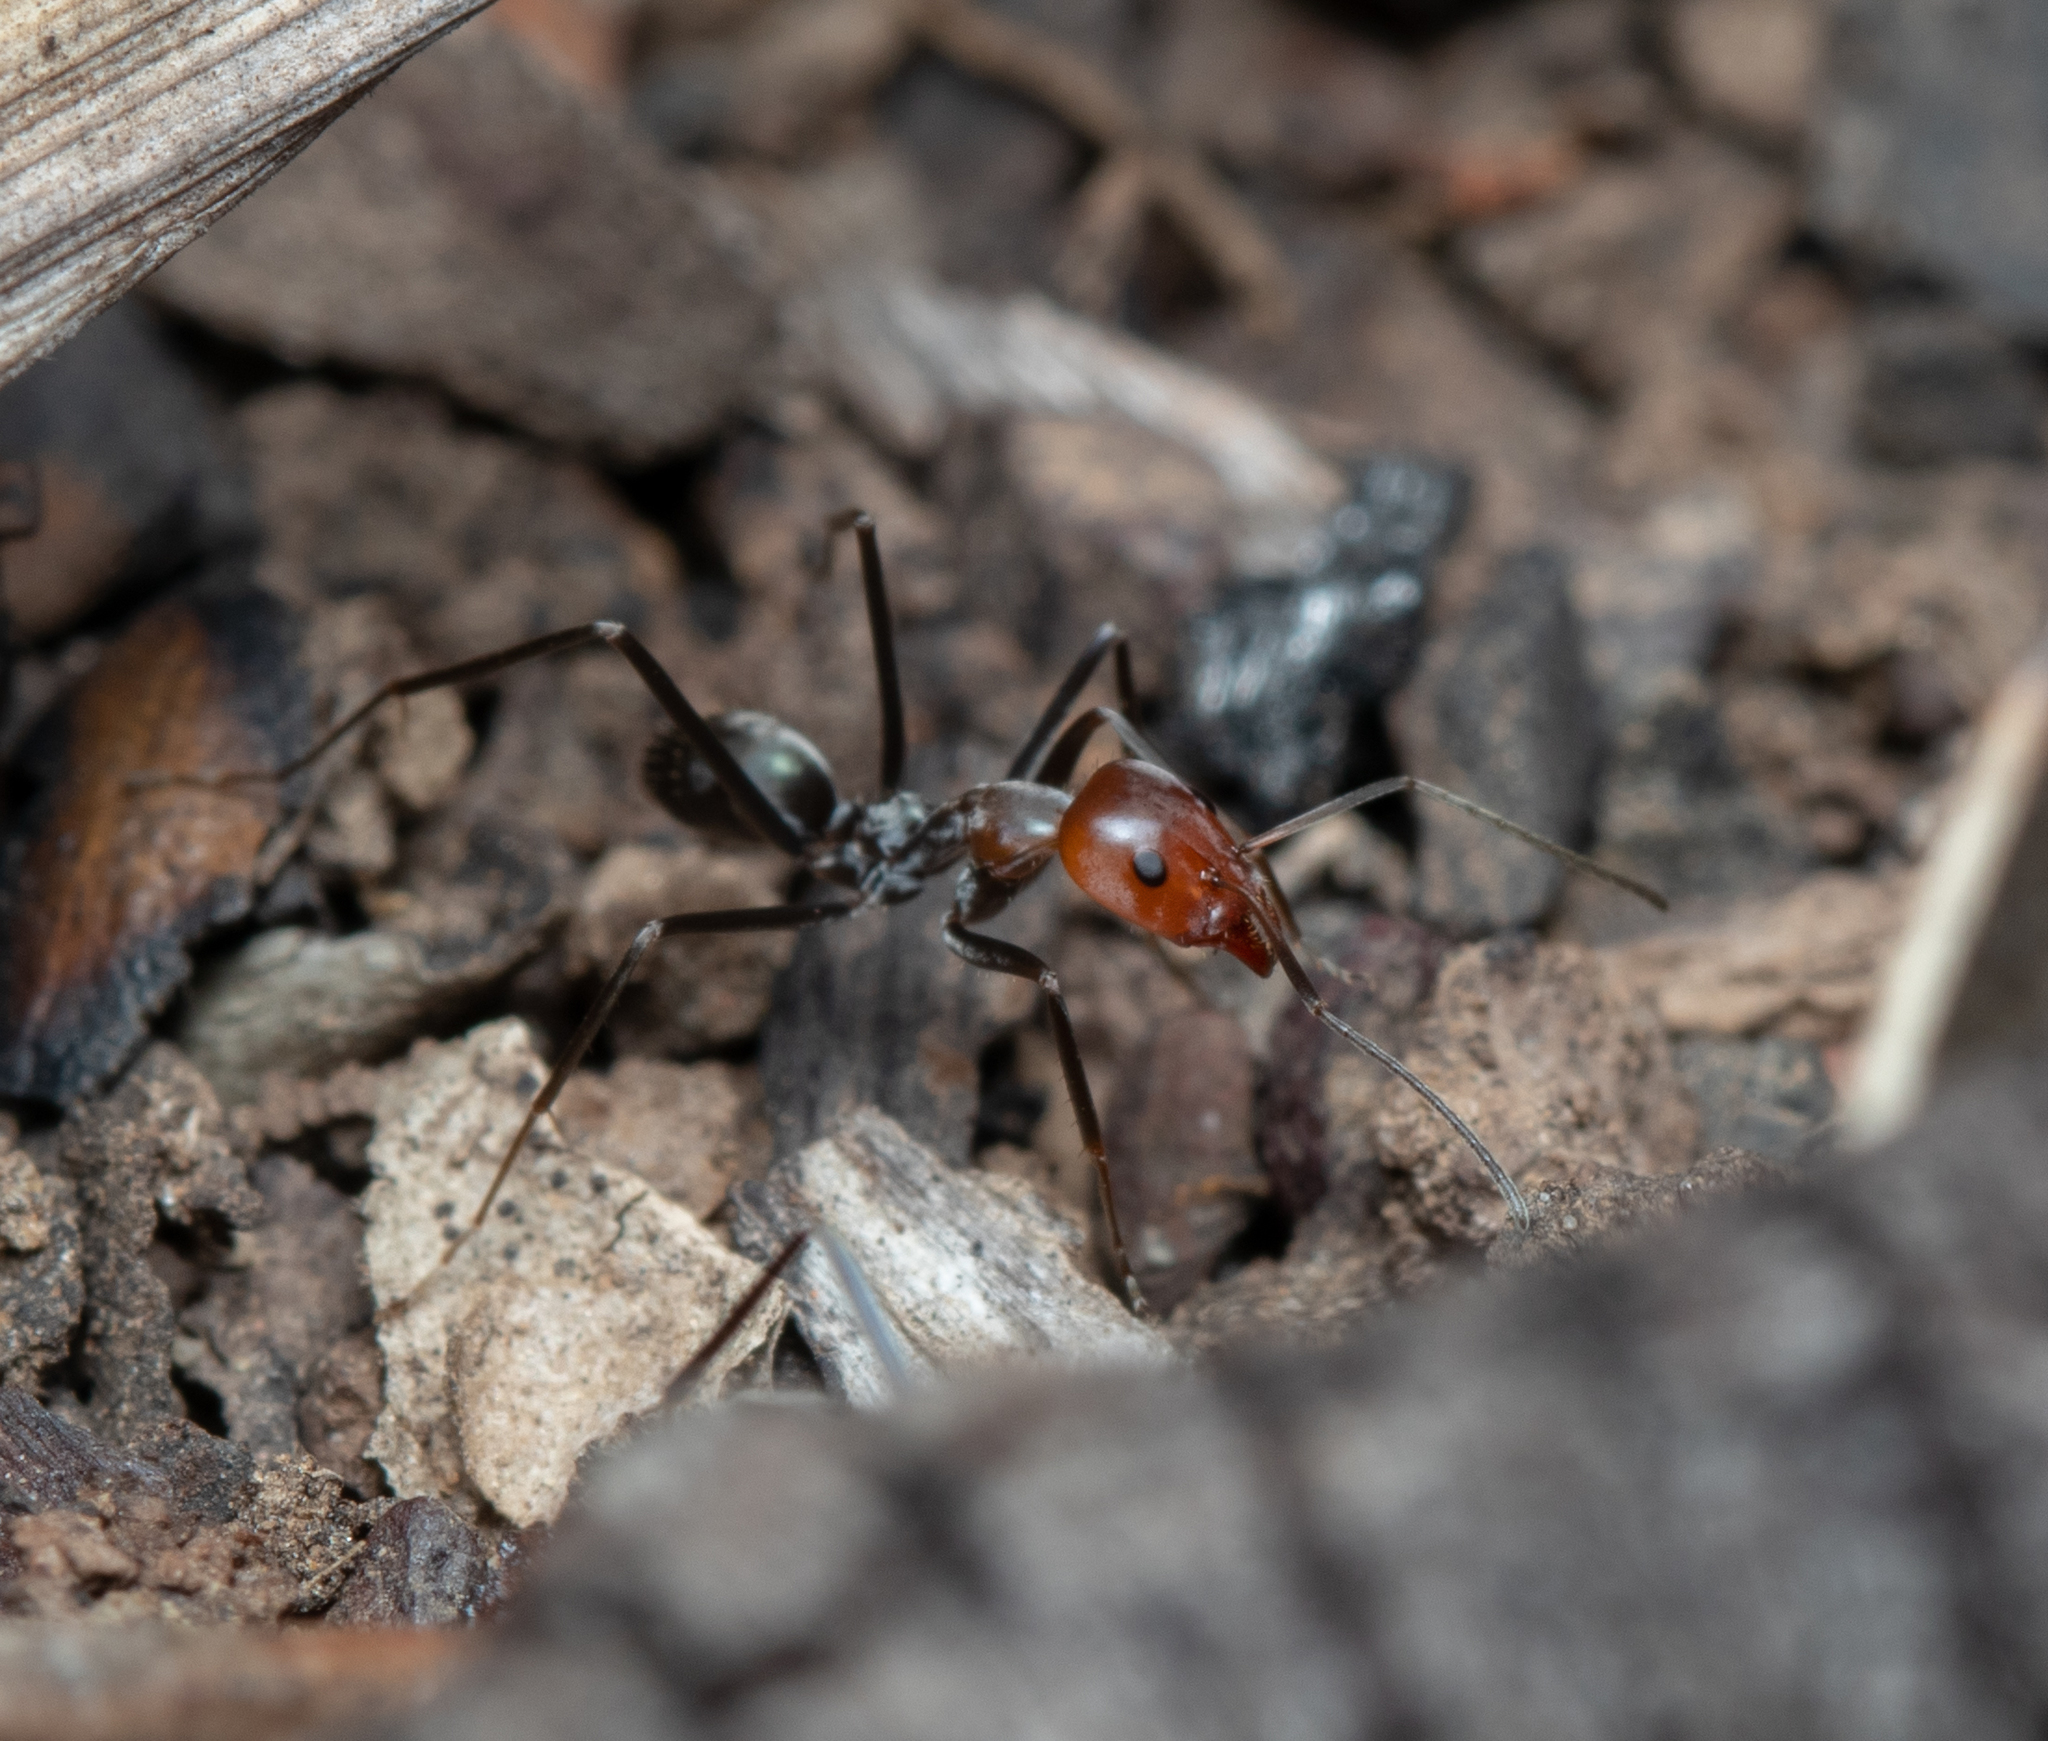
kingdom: Animalia
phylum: Arthropoda
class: Insecta
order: Hymenoptera
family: Formicidae
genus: Iridomyrmex
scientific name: Iridomyrmex
